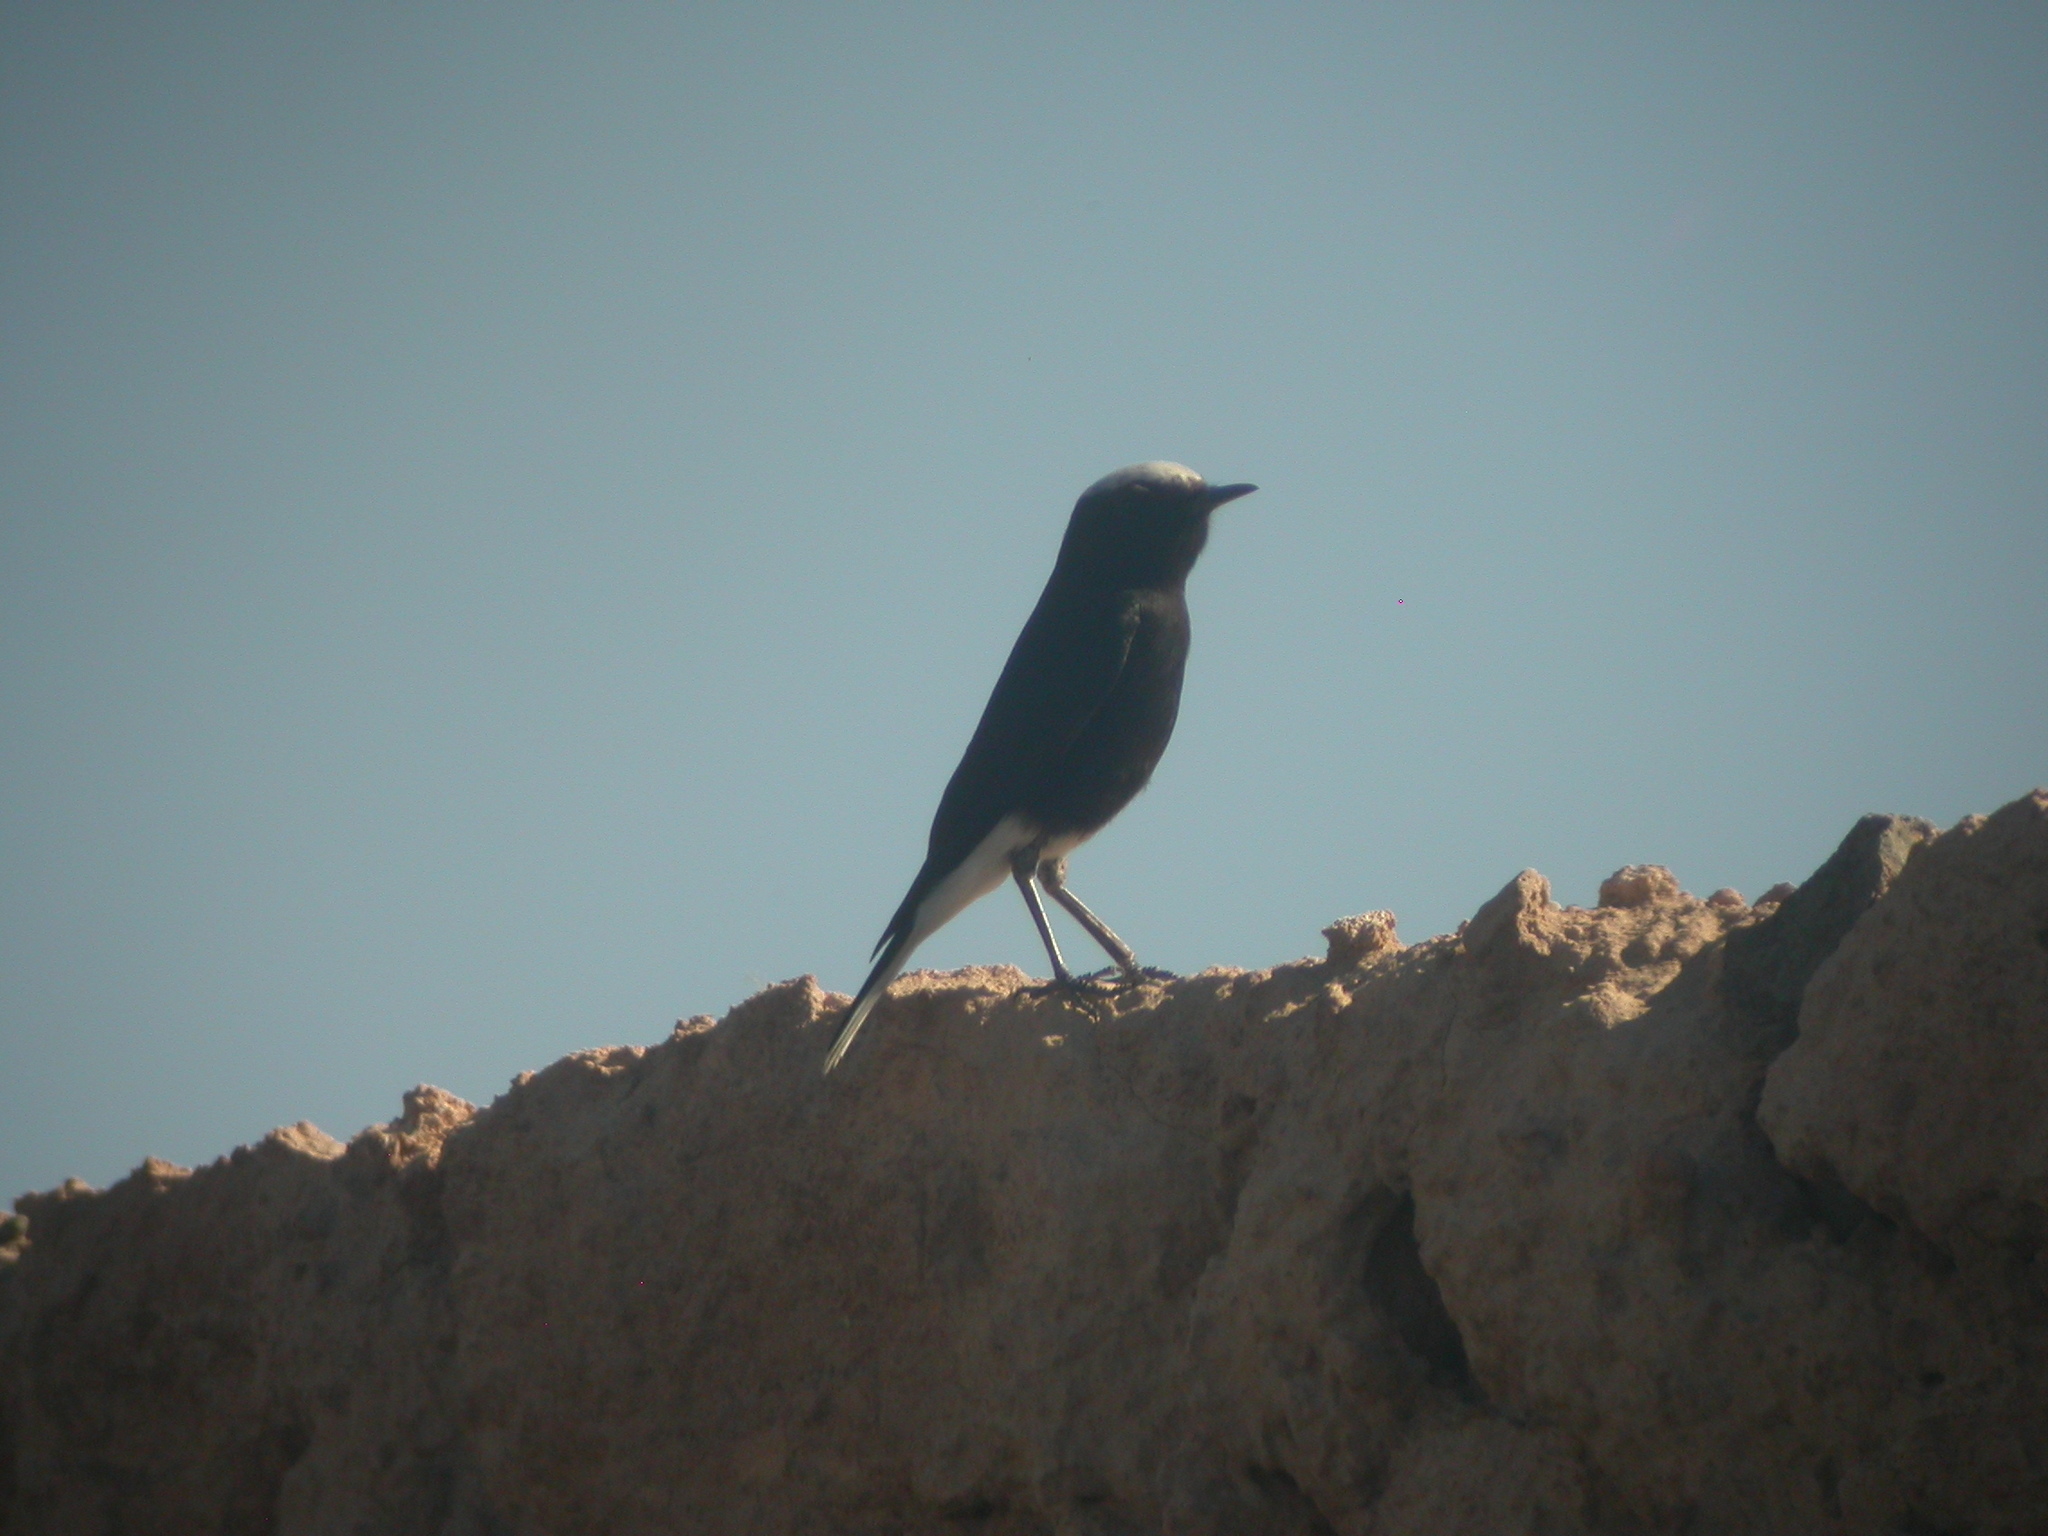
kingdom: Animalia
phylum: Chordata
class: Aves
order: Passeriformes
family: Muscicapidae
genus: Oenanthe
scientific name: Oenanthe leucopyga
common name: White-crowned wheatear
